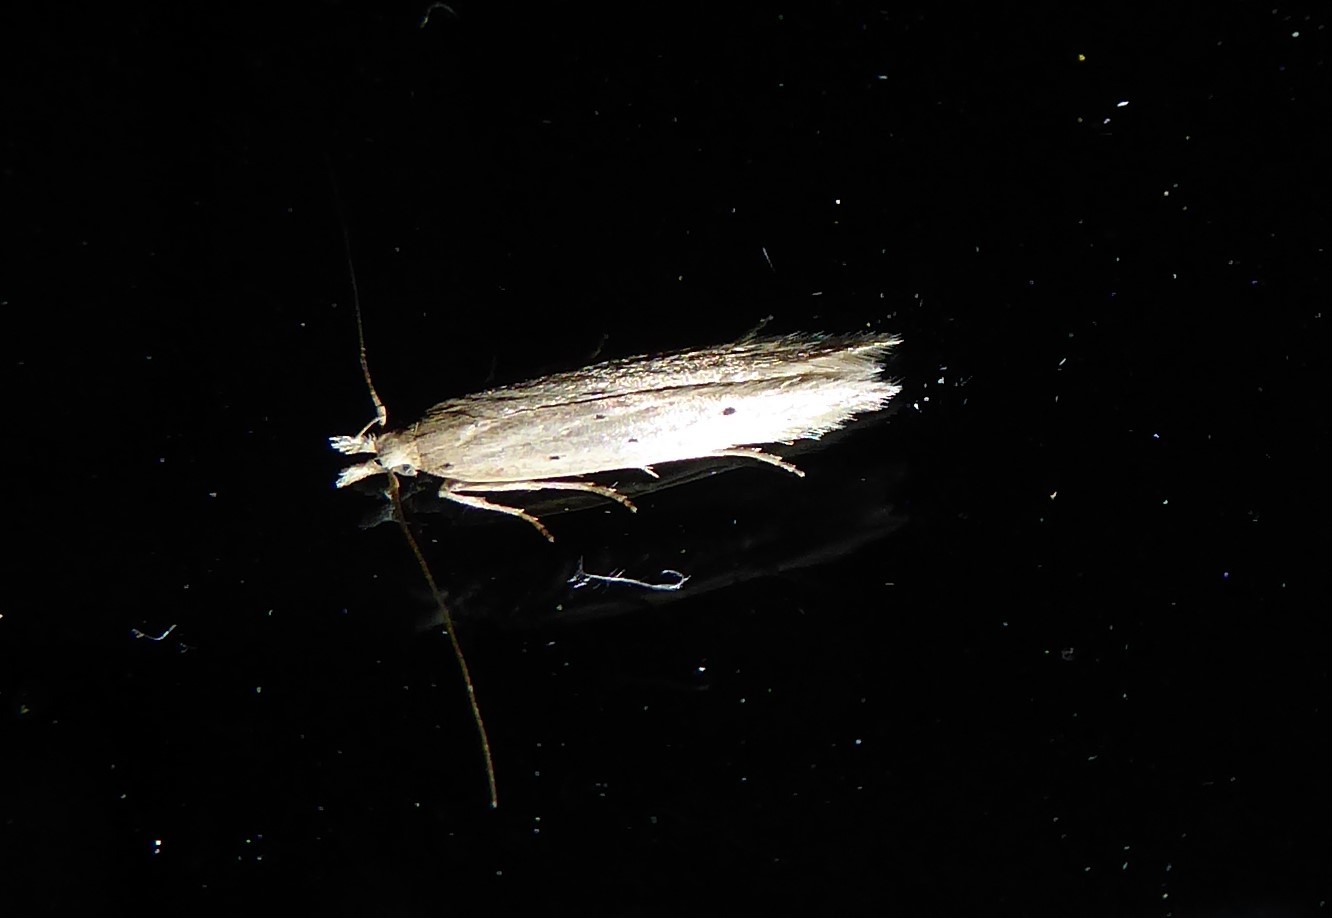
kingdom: Animalia
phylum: Arthropoda
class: Insecta
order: Lepidoptera
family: Gelechiidae
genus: Epiphthora
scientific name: Epiphthora calamogonus
